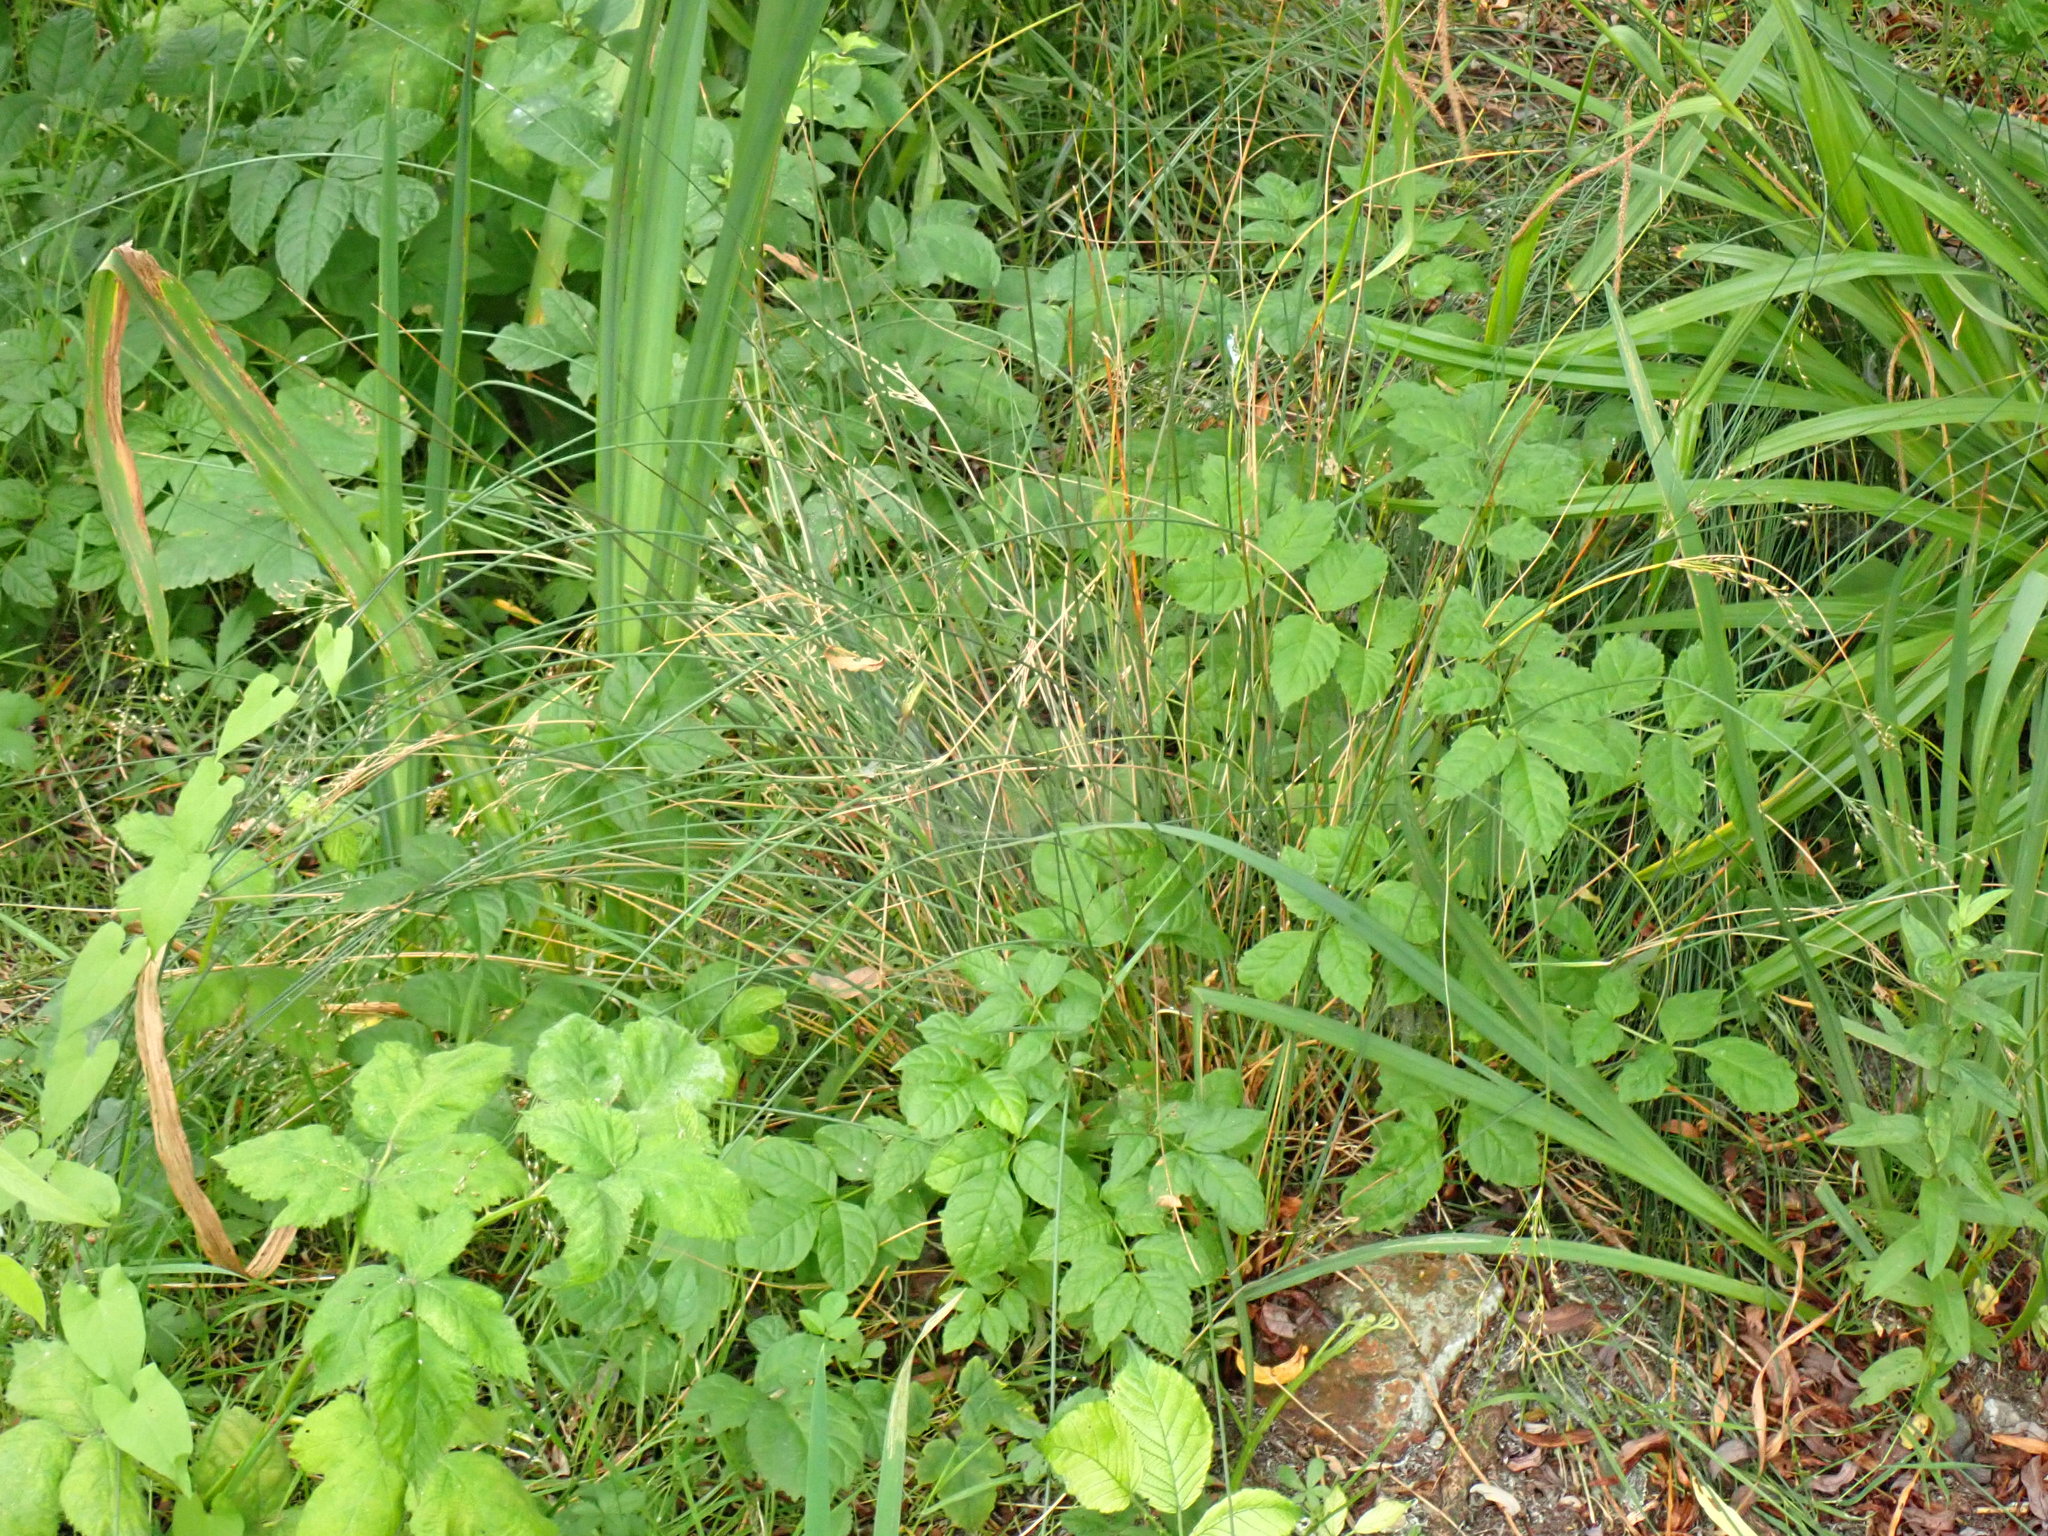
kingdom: Plantae
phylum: Tracheophyta
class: Liliopsida
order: Poales
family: Juncaceae
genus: Juncus
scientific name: Juncus inflexus
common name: Hard rush
